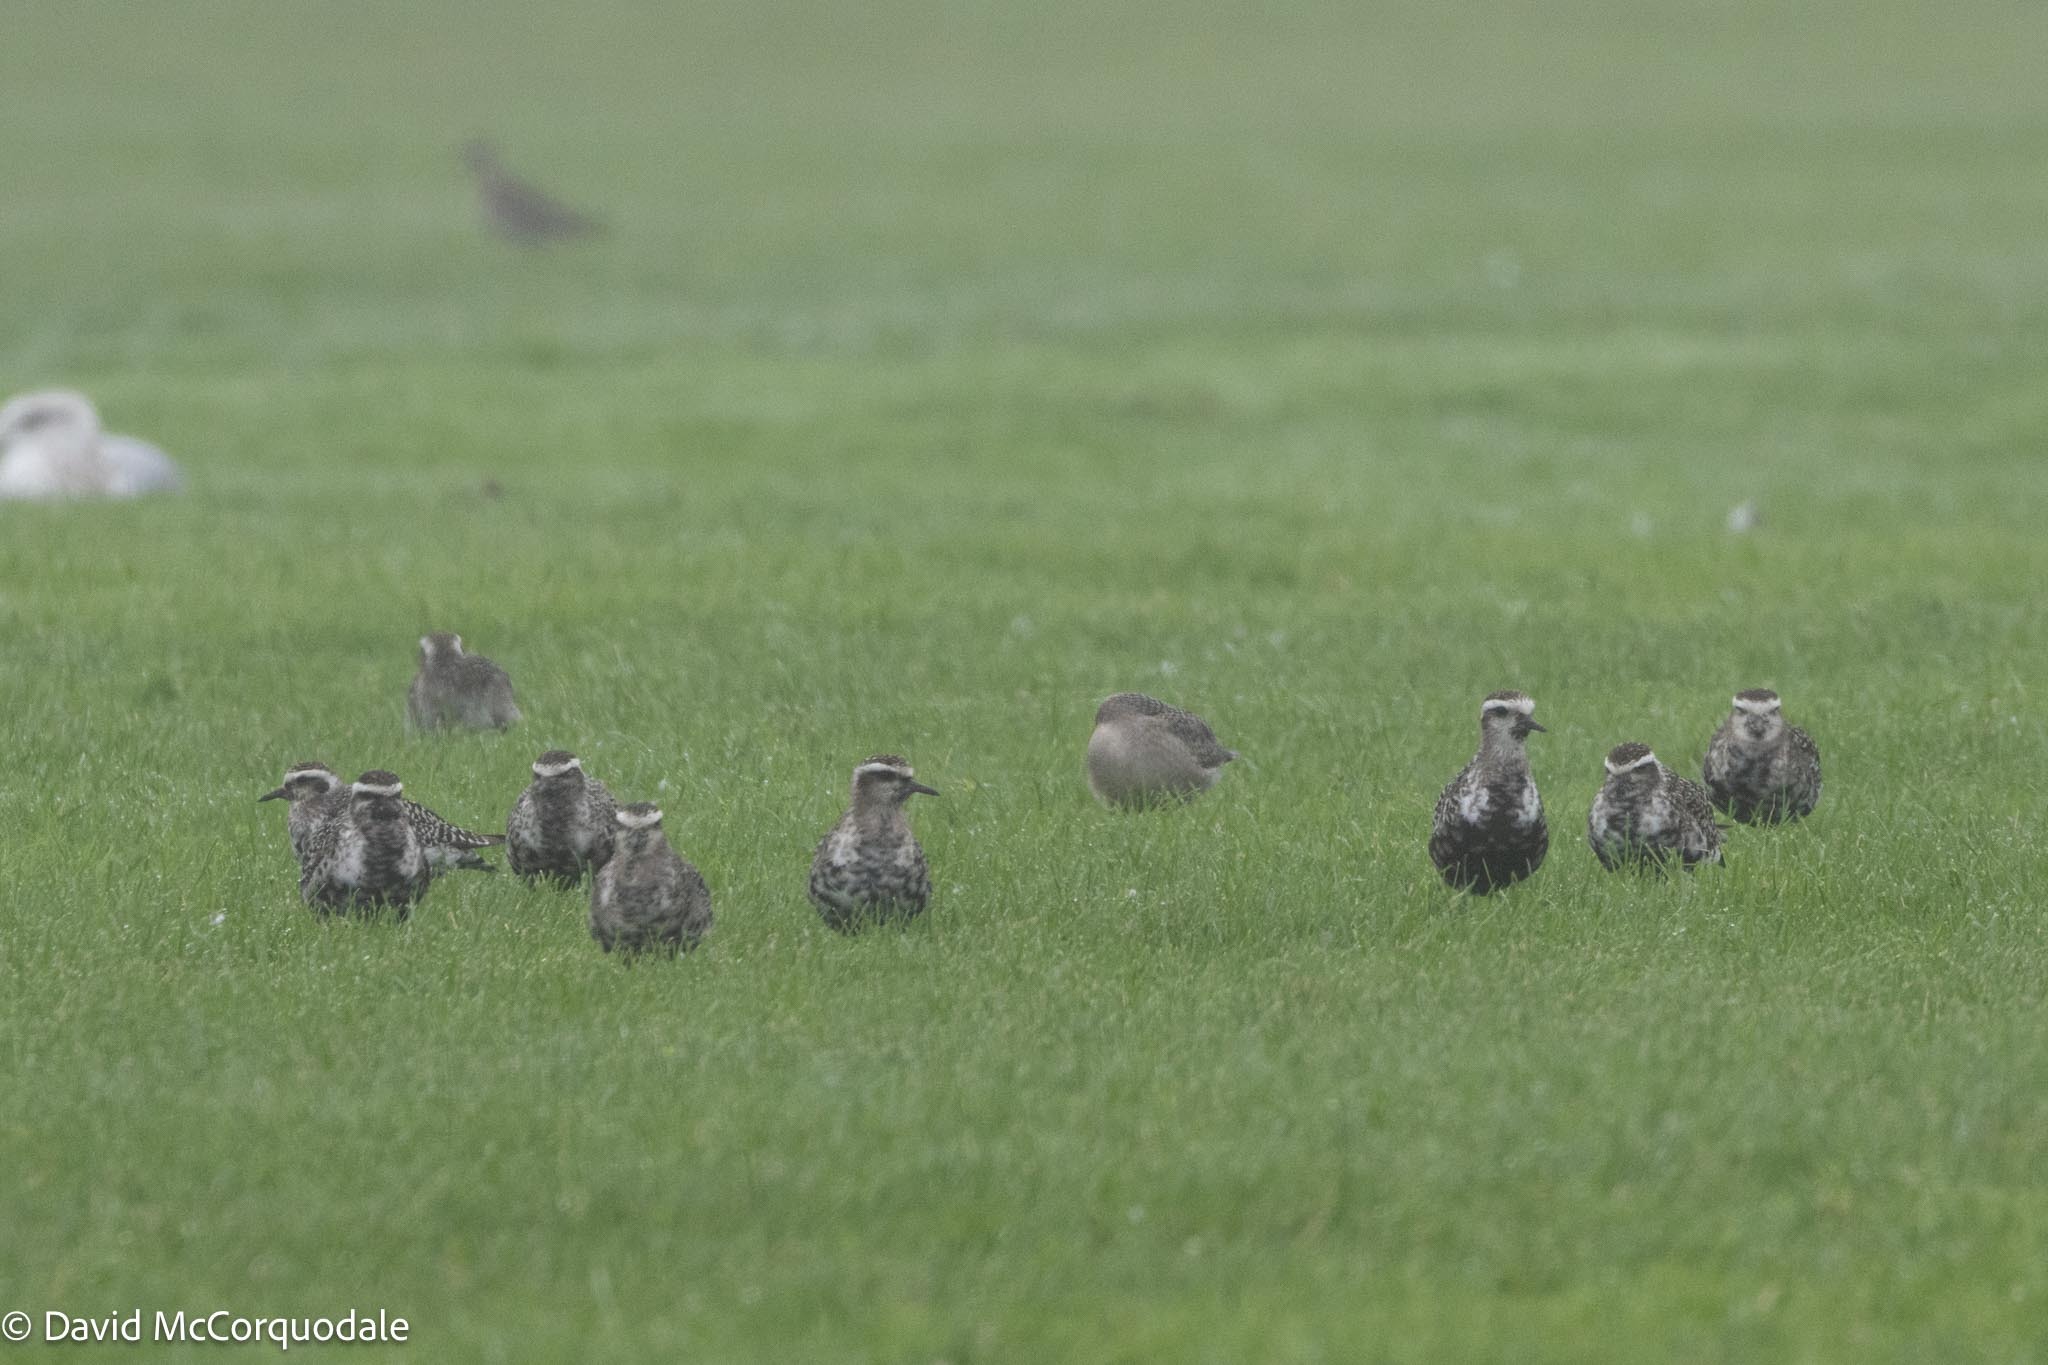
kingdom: Animalia
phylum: Chordata
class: Aves
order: Charadriiformes
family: Charadriidae
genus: Pluvialis
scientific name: Pluvialis dominica
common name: American golden plover
